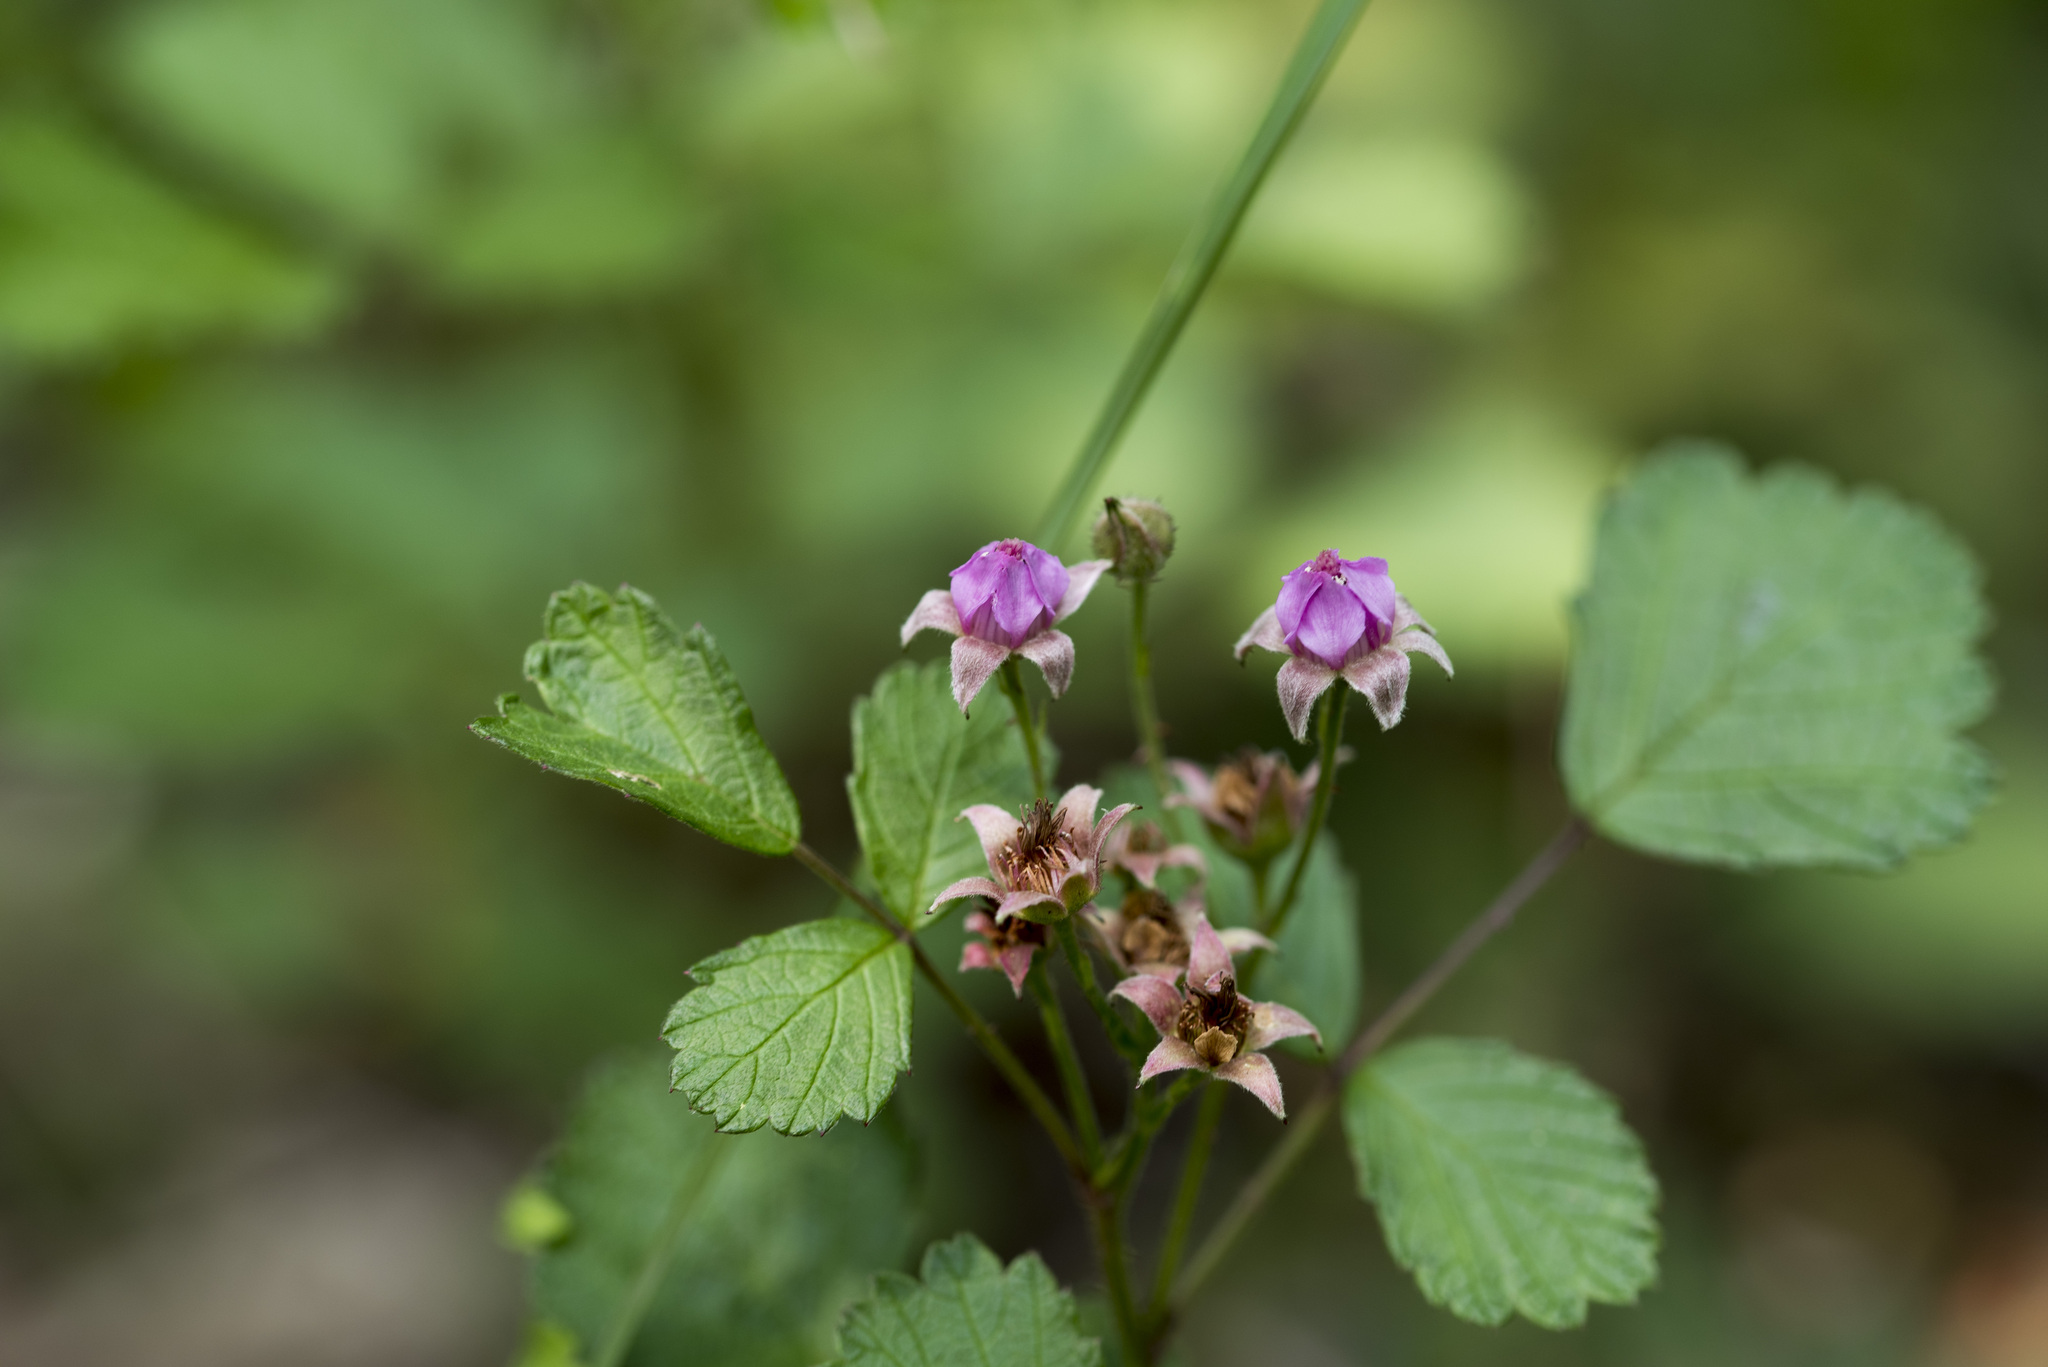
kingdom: Plantae
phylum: Tracheophyta
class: Magnoliopsida
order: Rosales
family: Rosaceae
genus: Rubus
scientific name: Rubus parvifolius
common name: Threeleaf blackberry
